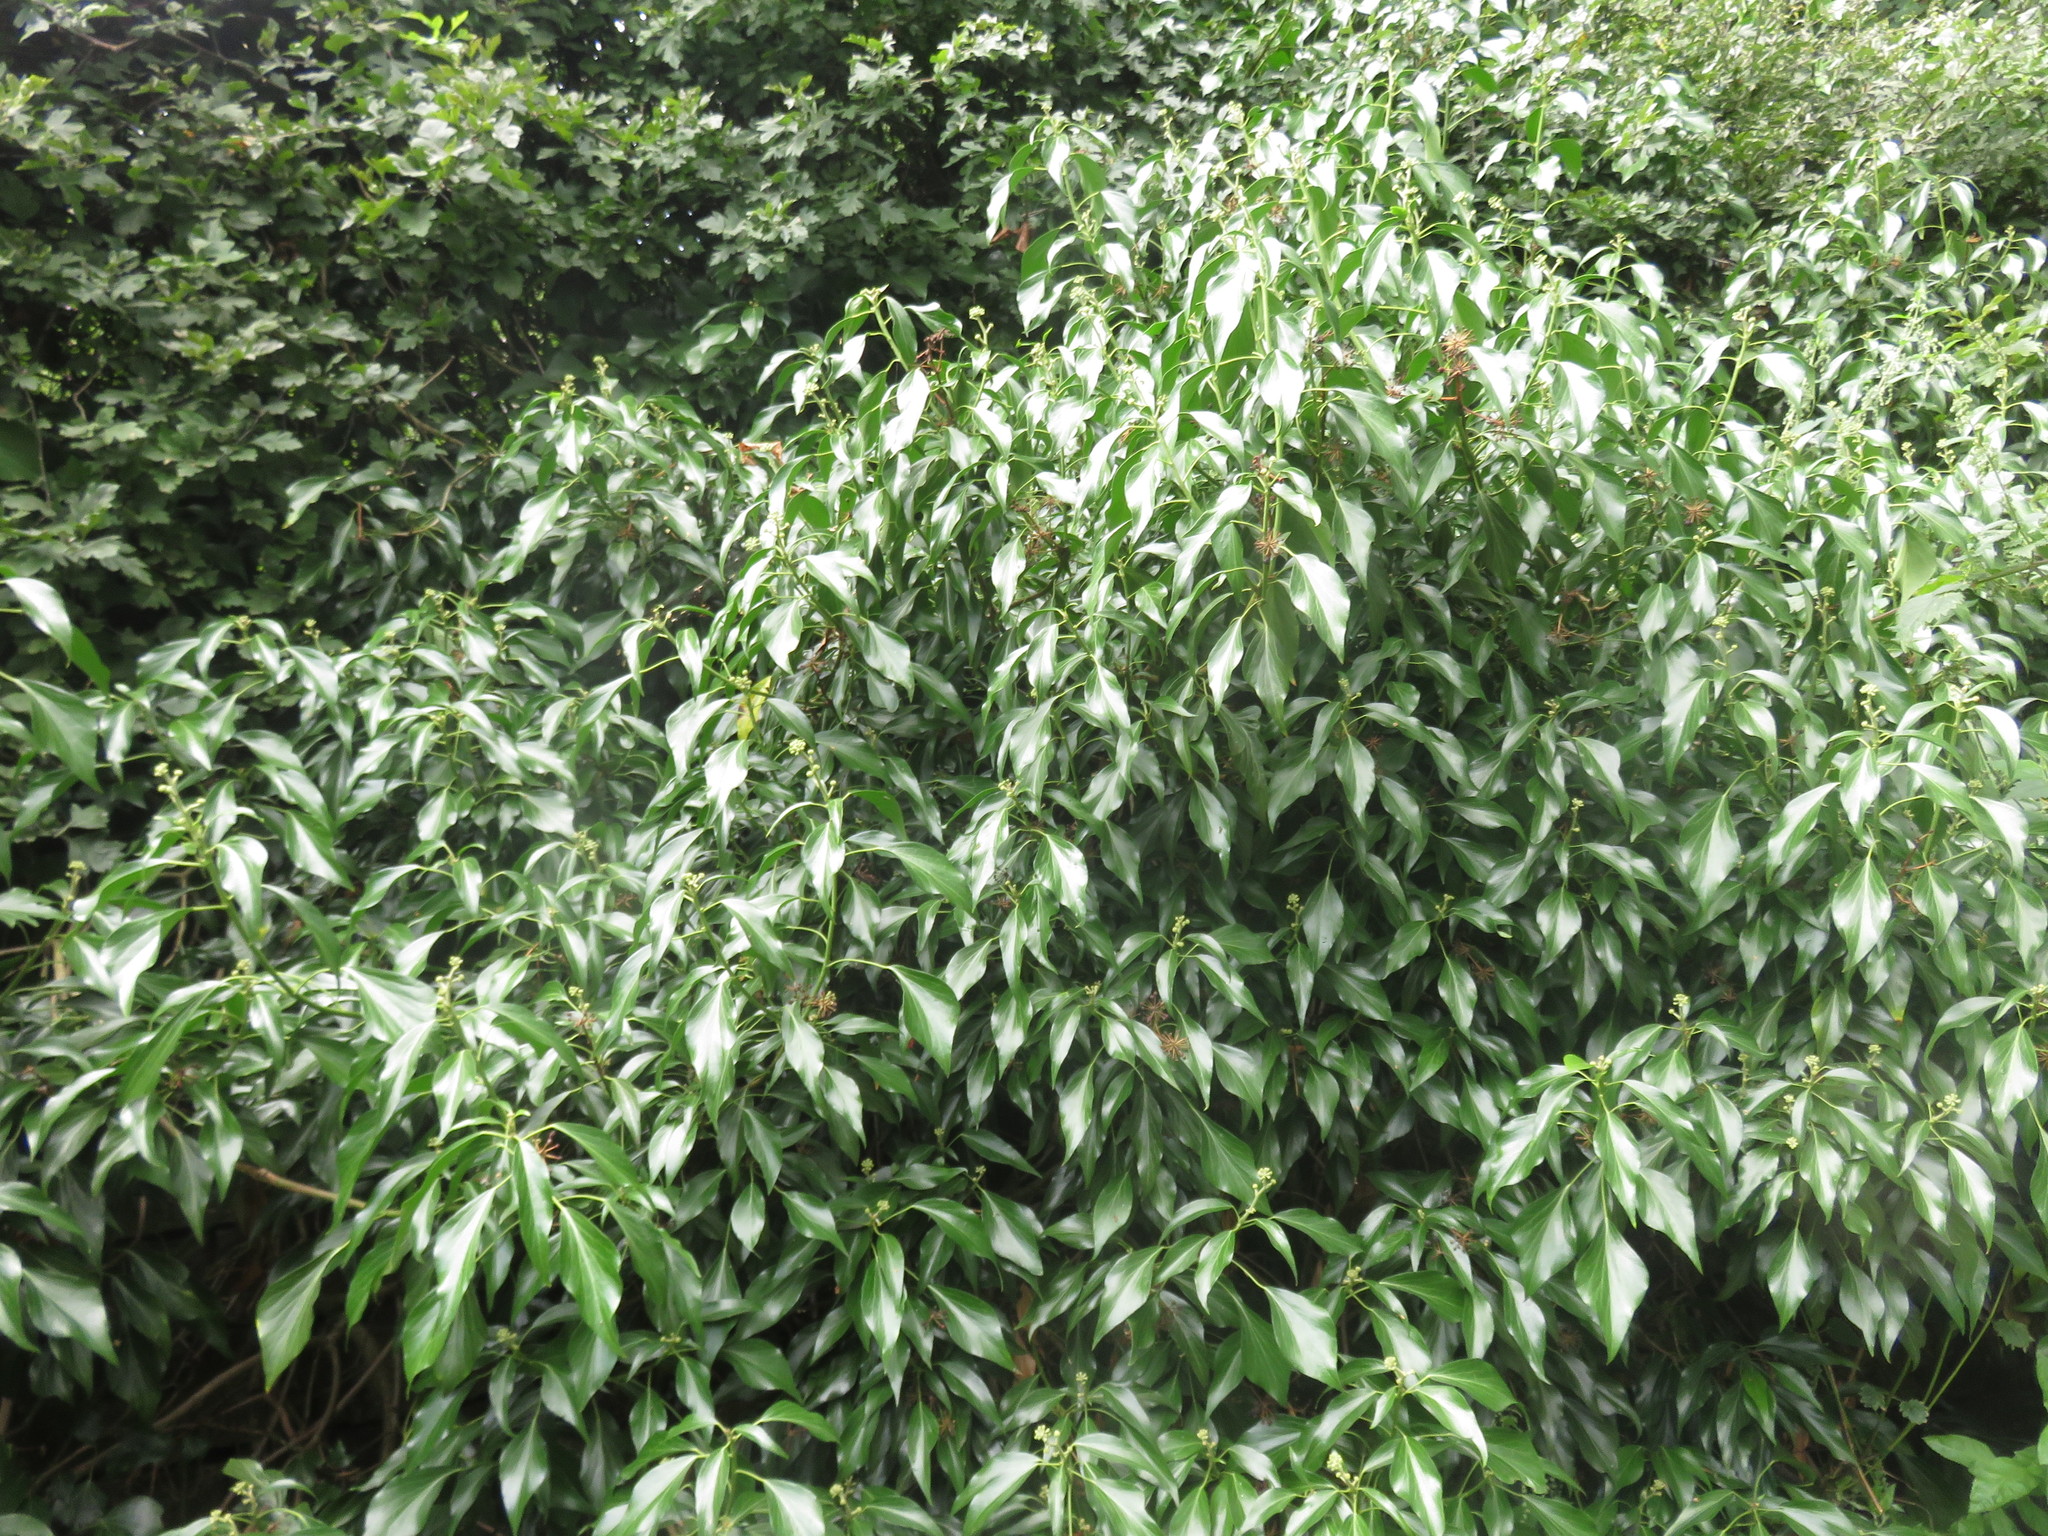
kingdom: Plantae
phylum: Tracheophyta
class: Magnoliopsida
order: Apiales
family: Araliaceae
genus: Hedera
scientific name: Hedera helix
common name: Ivy
